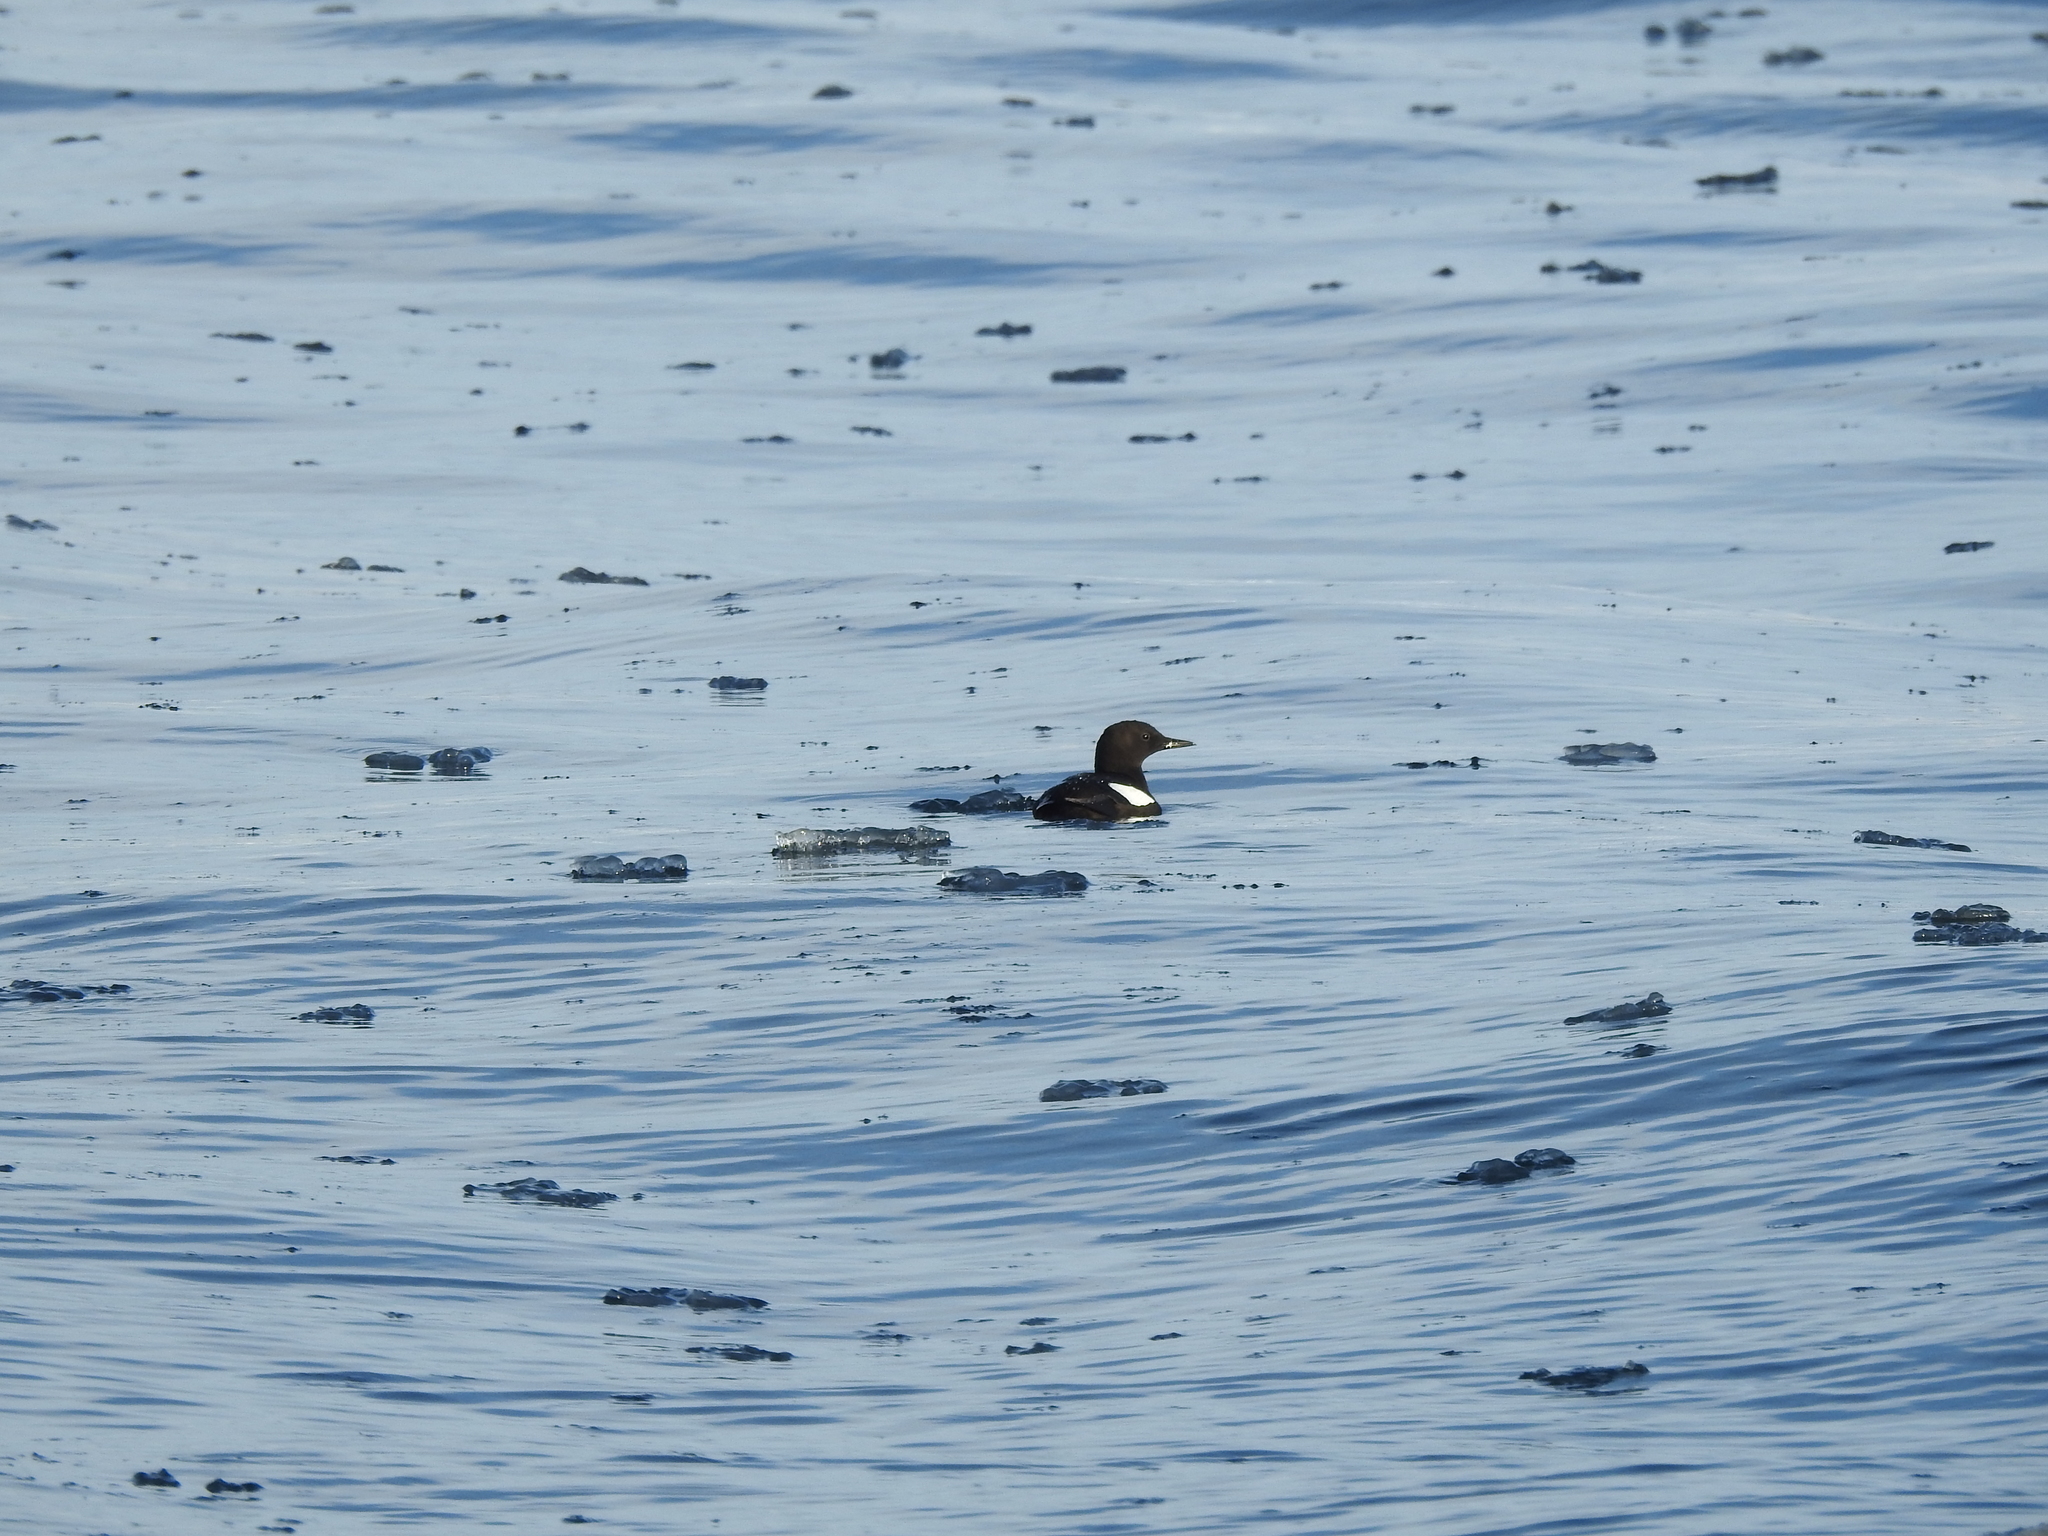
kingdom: Animalia
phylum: Chordata
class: Aves
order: Charadriiformes
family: Alcidae
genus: Cepphus
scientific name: Cepphus grylle
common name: Black guillemot
